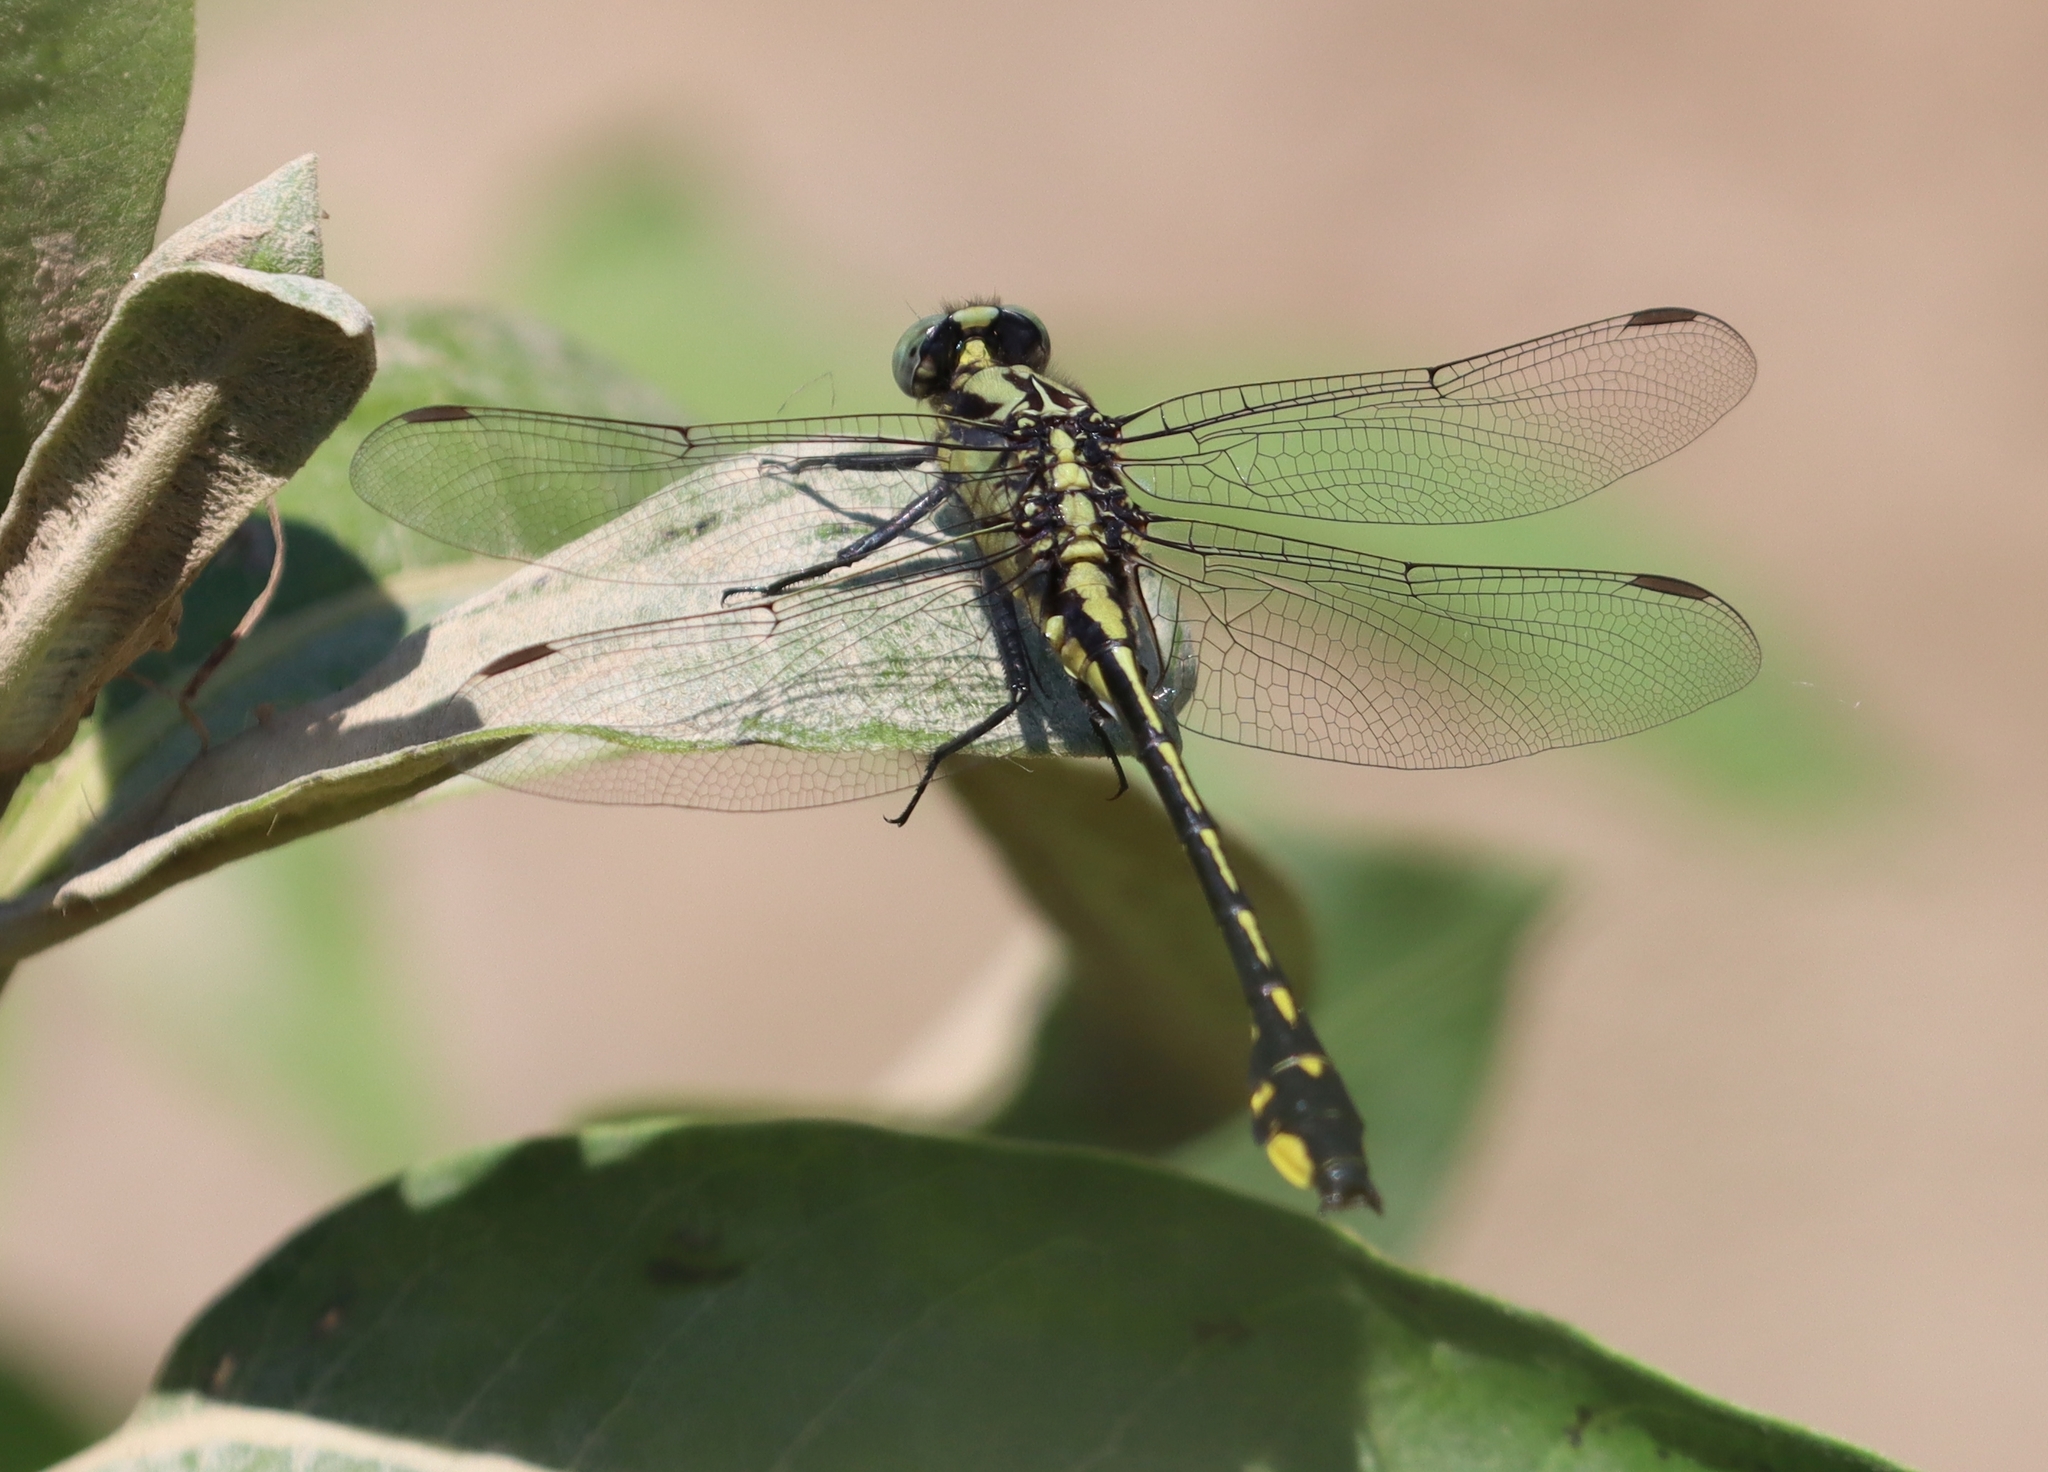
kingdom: Animalia
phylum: Arthropoda
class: Insecta
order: Odonata
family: Gomphidae
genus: Gomphurus
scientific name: Gomphurus fraternus
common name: Midland clubtail
